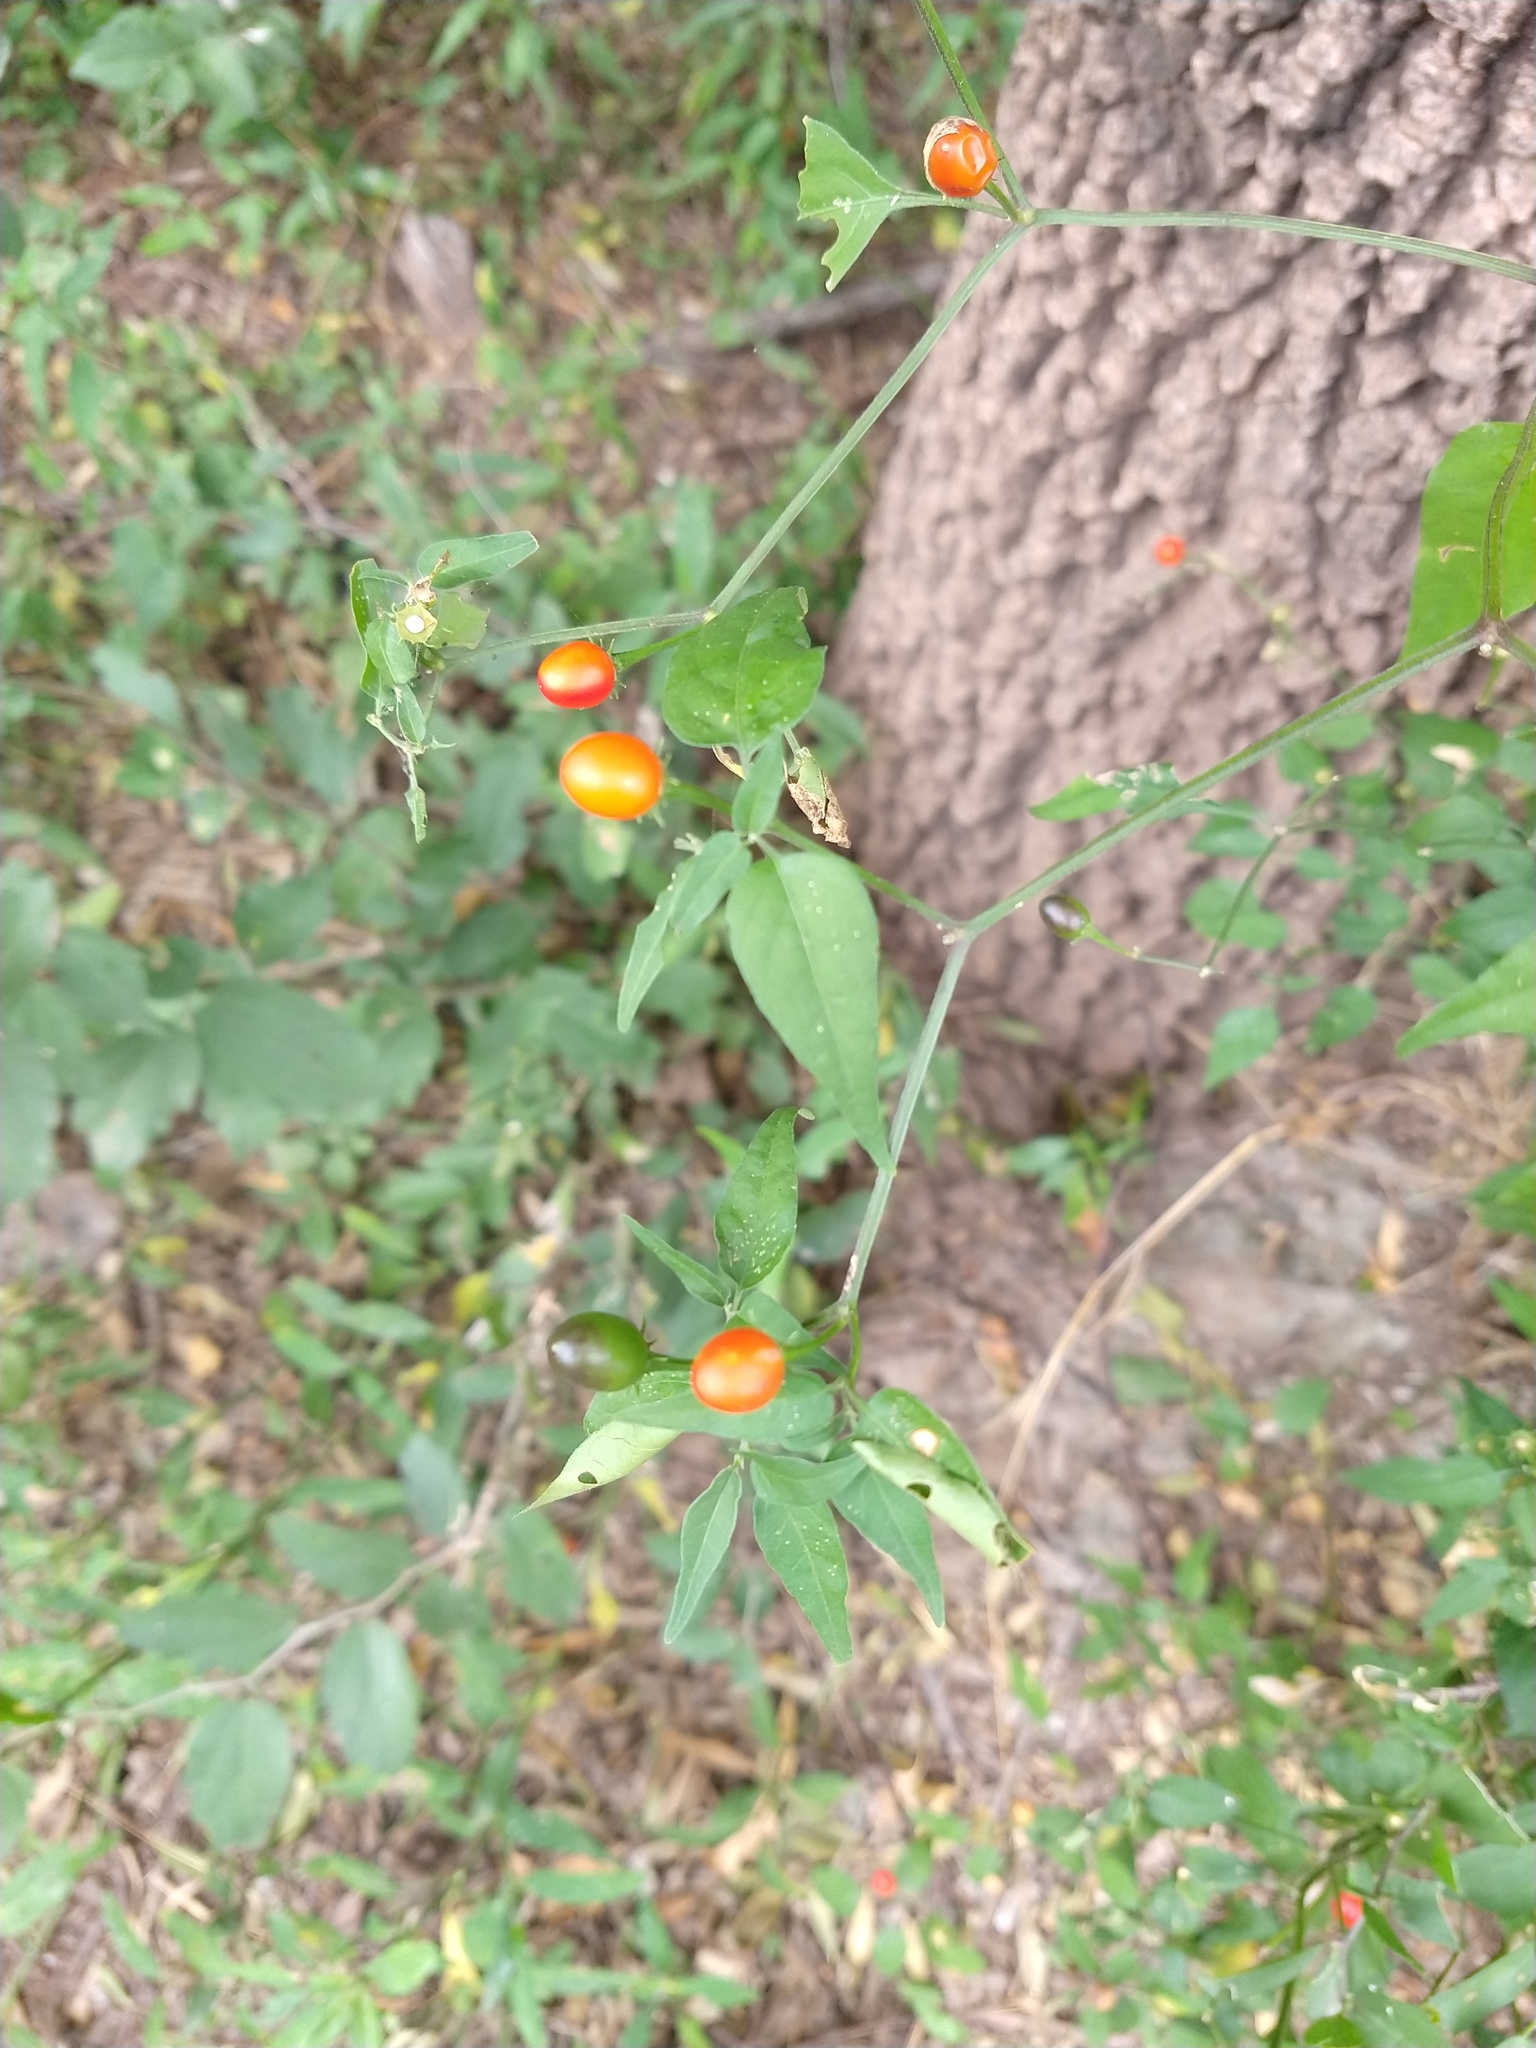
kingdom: Plantae
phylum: Tracheophyta
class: Magnoliopsida
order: Solanales
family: Solanaceae
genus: Capsicum
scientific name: Capsicum chacoense
